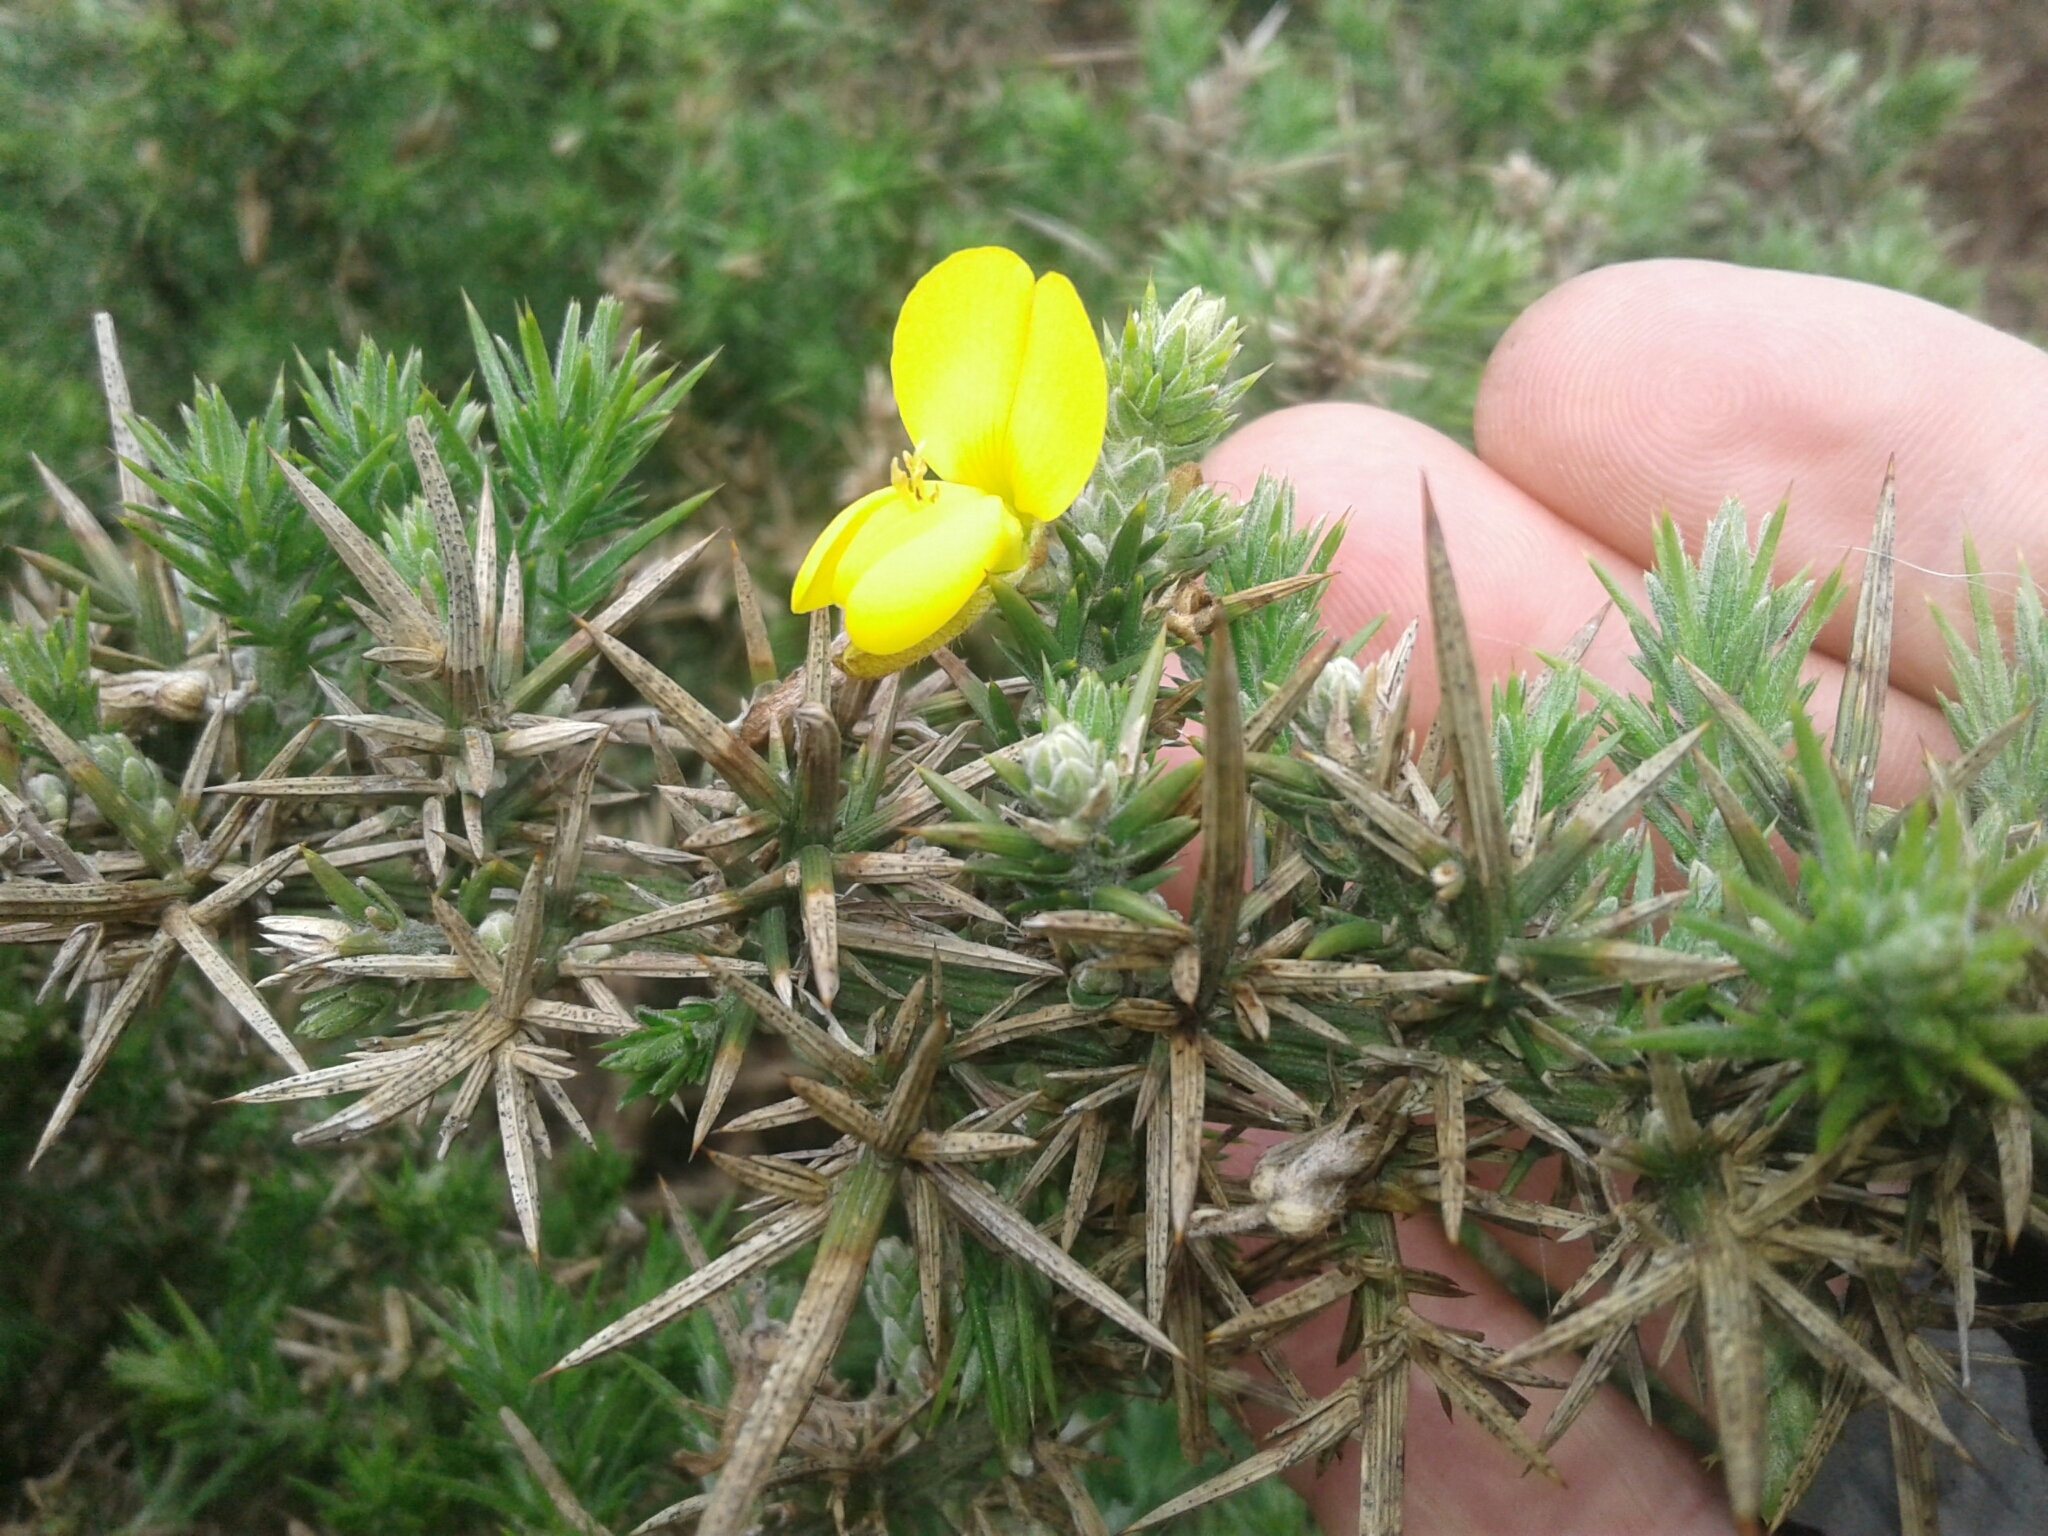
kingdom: Plantae
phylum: Tracheophyta
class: Magnoliopsida
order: Fabales
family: Fabaceae
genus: Ulex
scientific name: Ulex europaeus
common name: Common gorse
